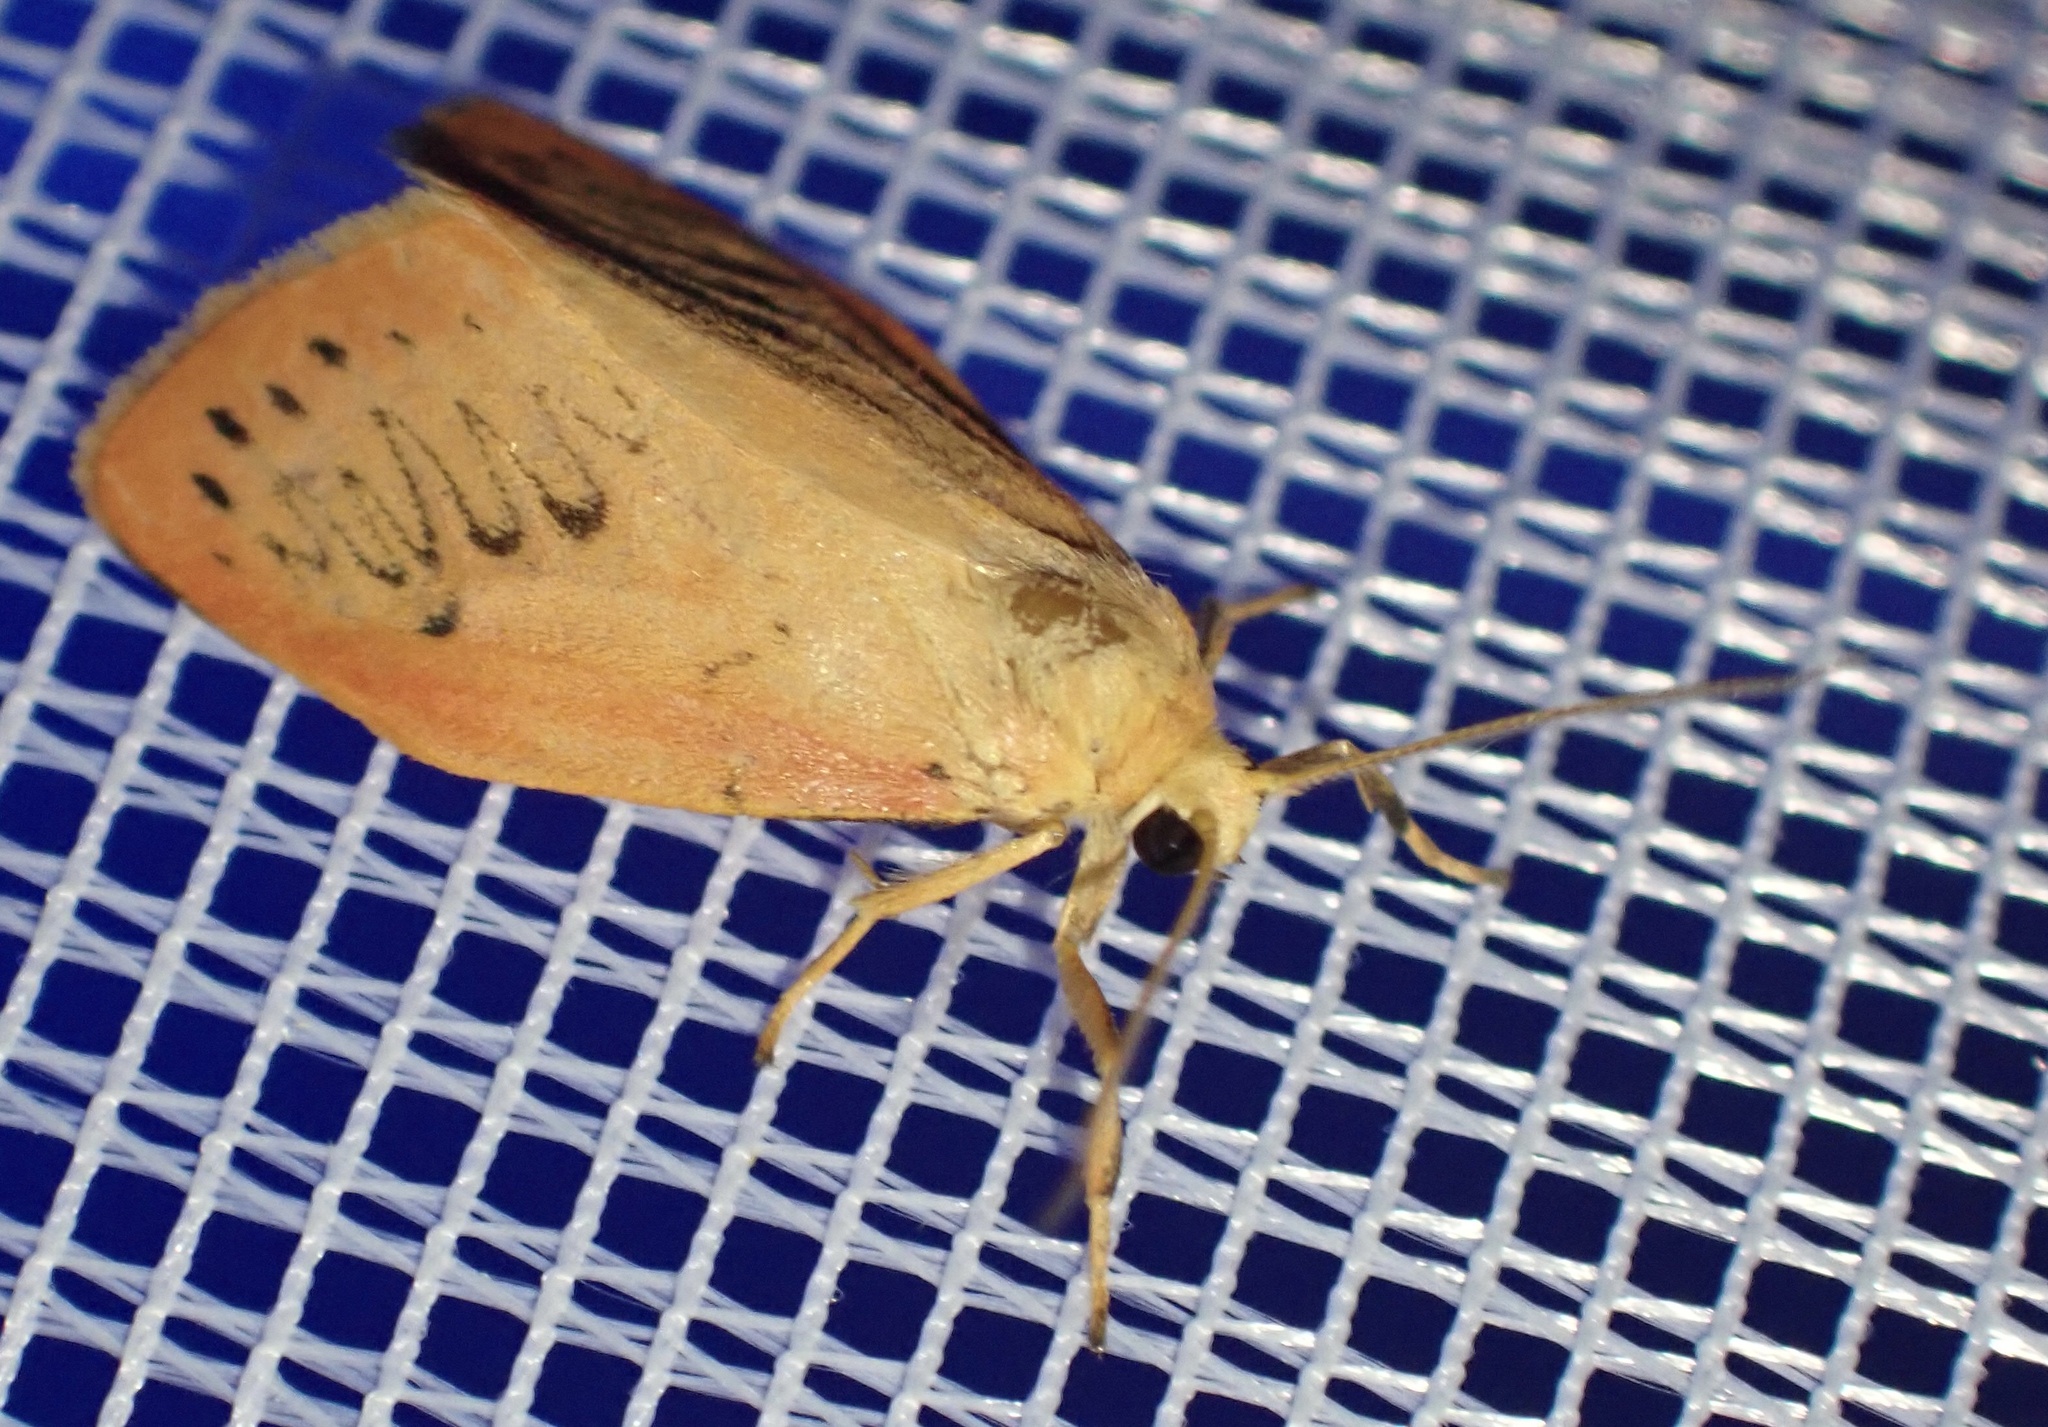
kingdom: Animalia
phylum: Arthropoda
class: Insecta
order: Lepidoptera
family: Erebidae
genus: Miltochrista
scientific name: Miltochrista miniata
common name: Rosy footman
